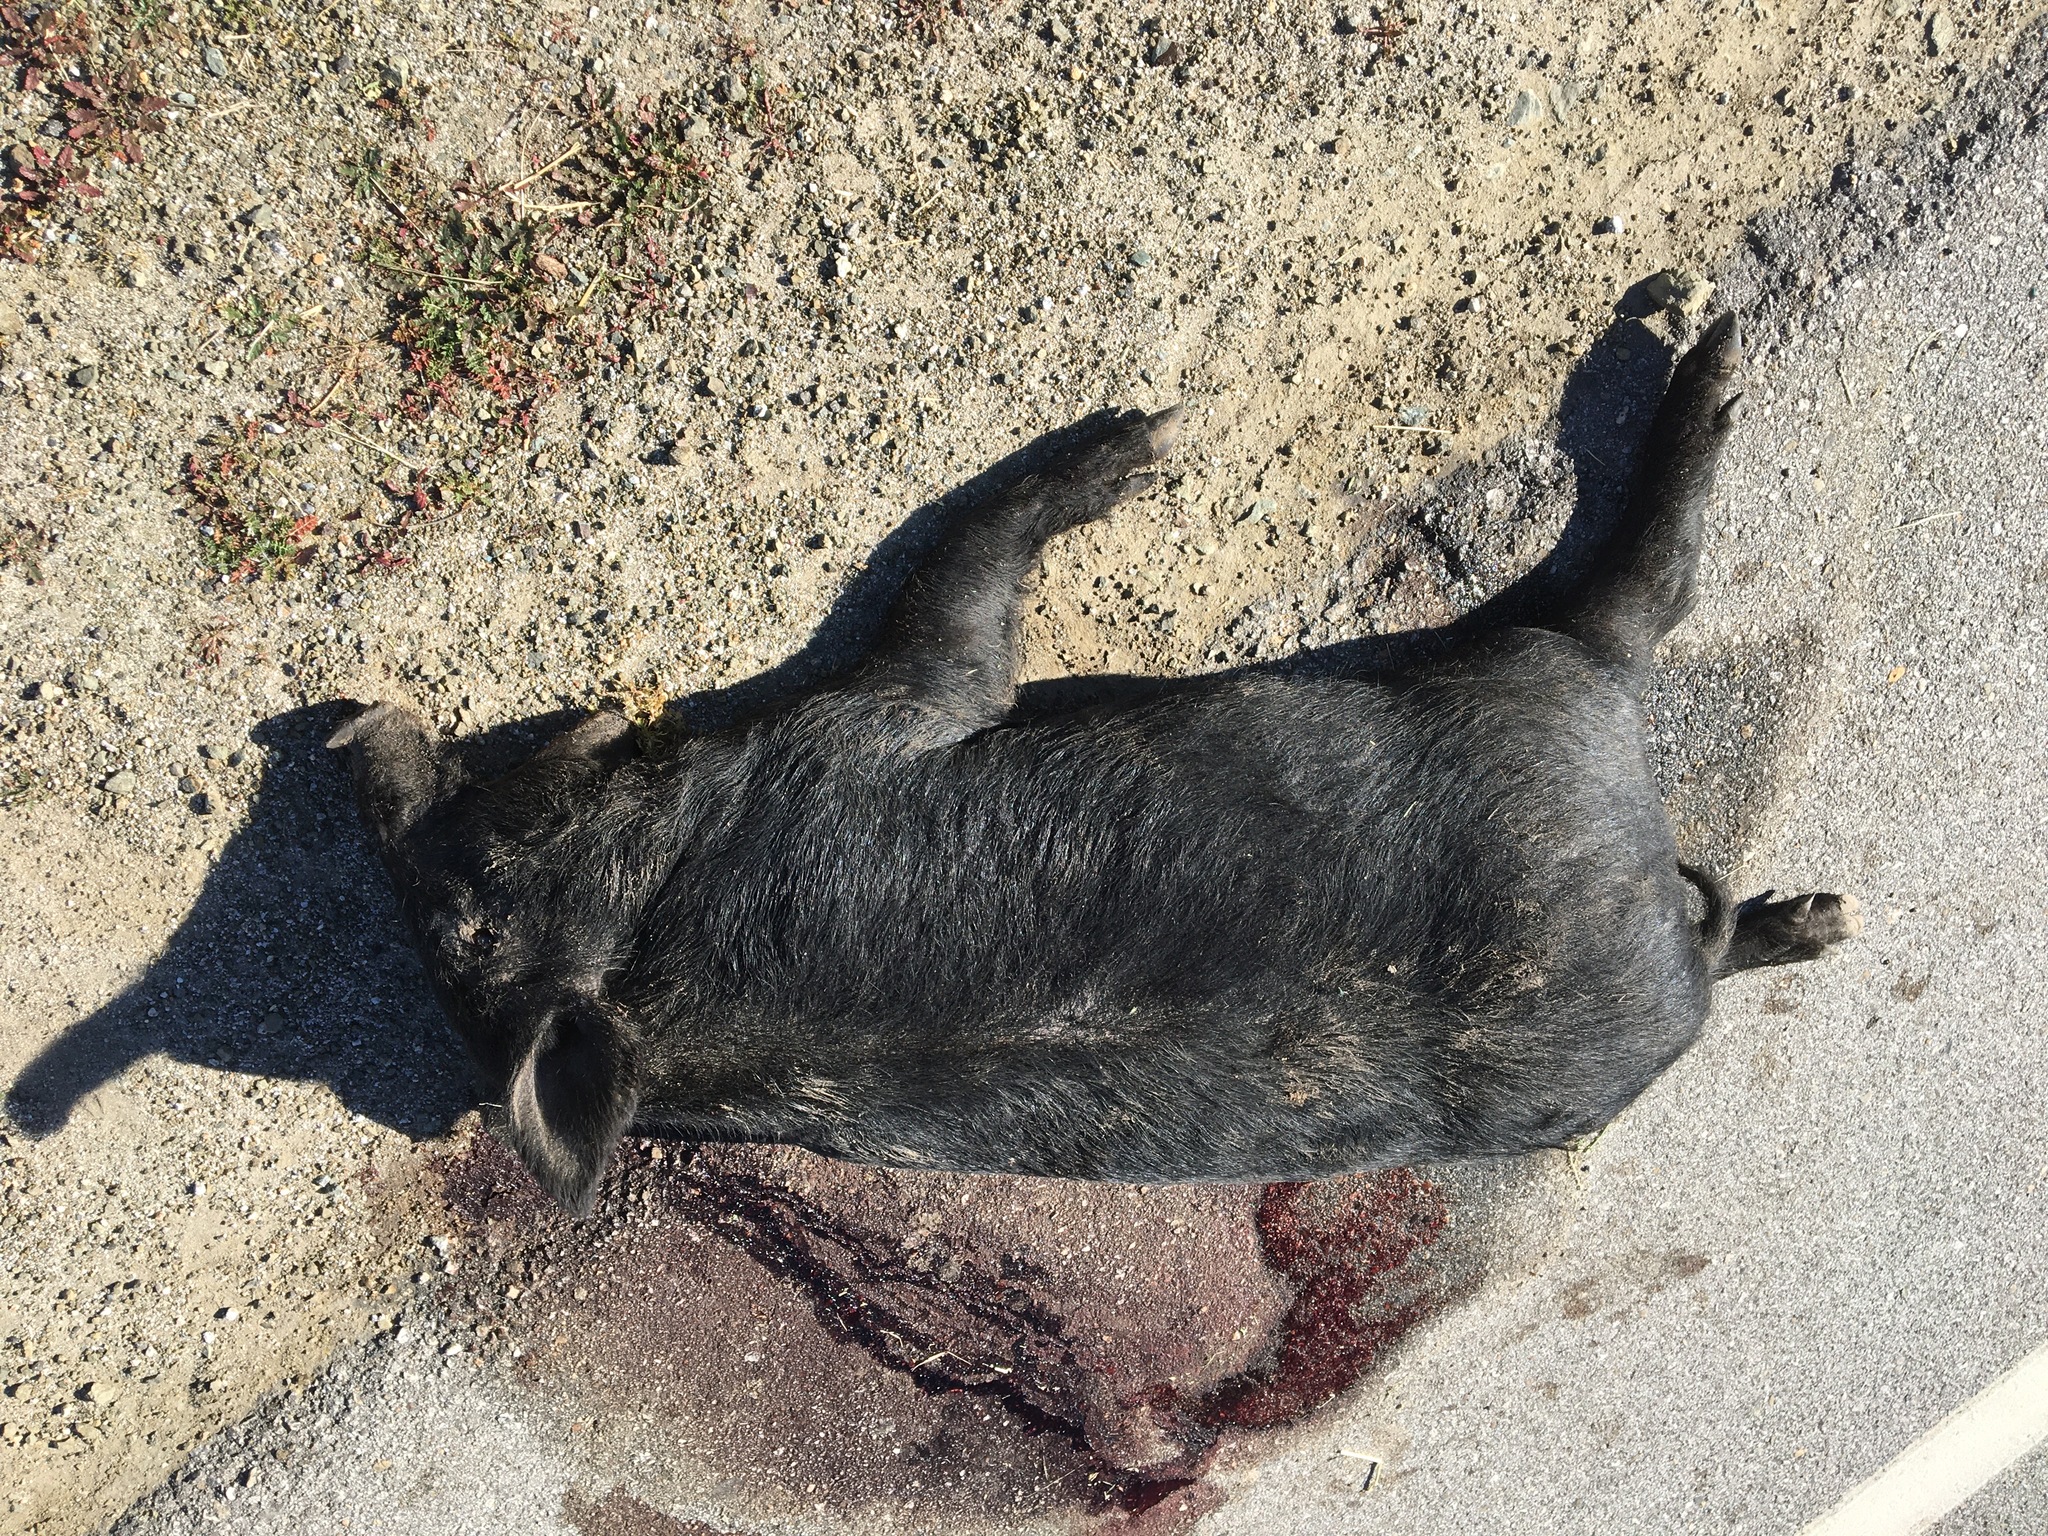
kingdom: Animalia
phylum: Chordata
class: Mammalia
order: Artiodactyla
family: Suidae
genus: Sus
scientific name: Sus scrofa
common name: Wild boar
